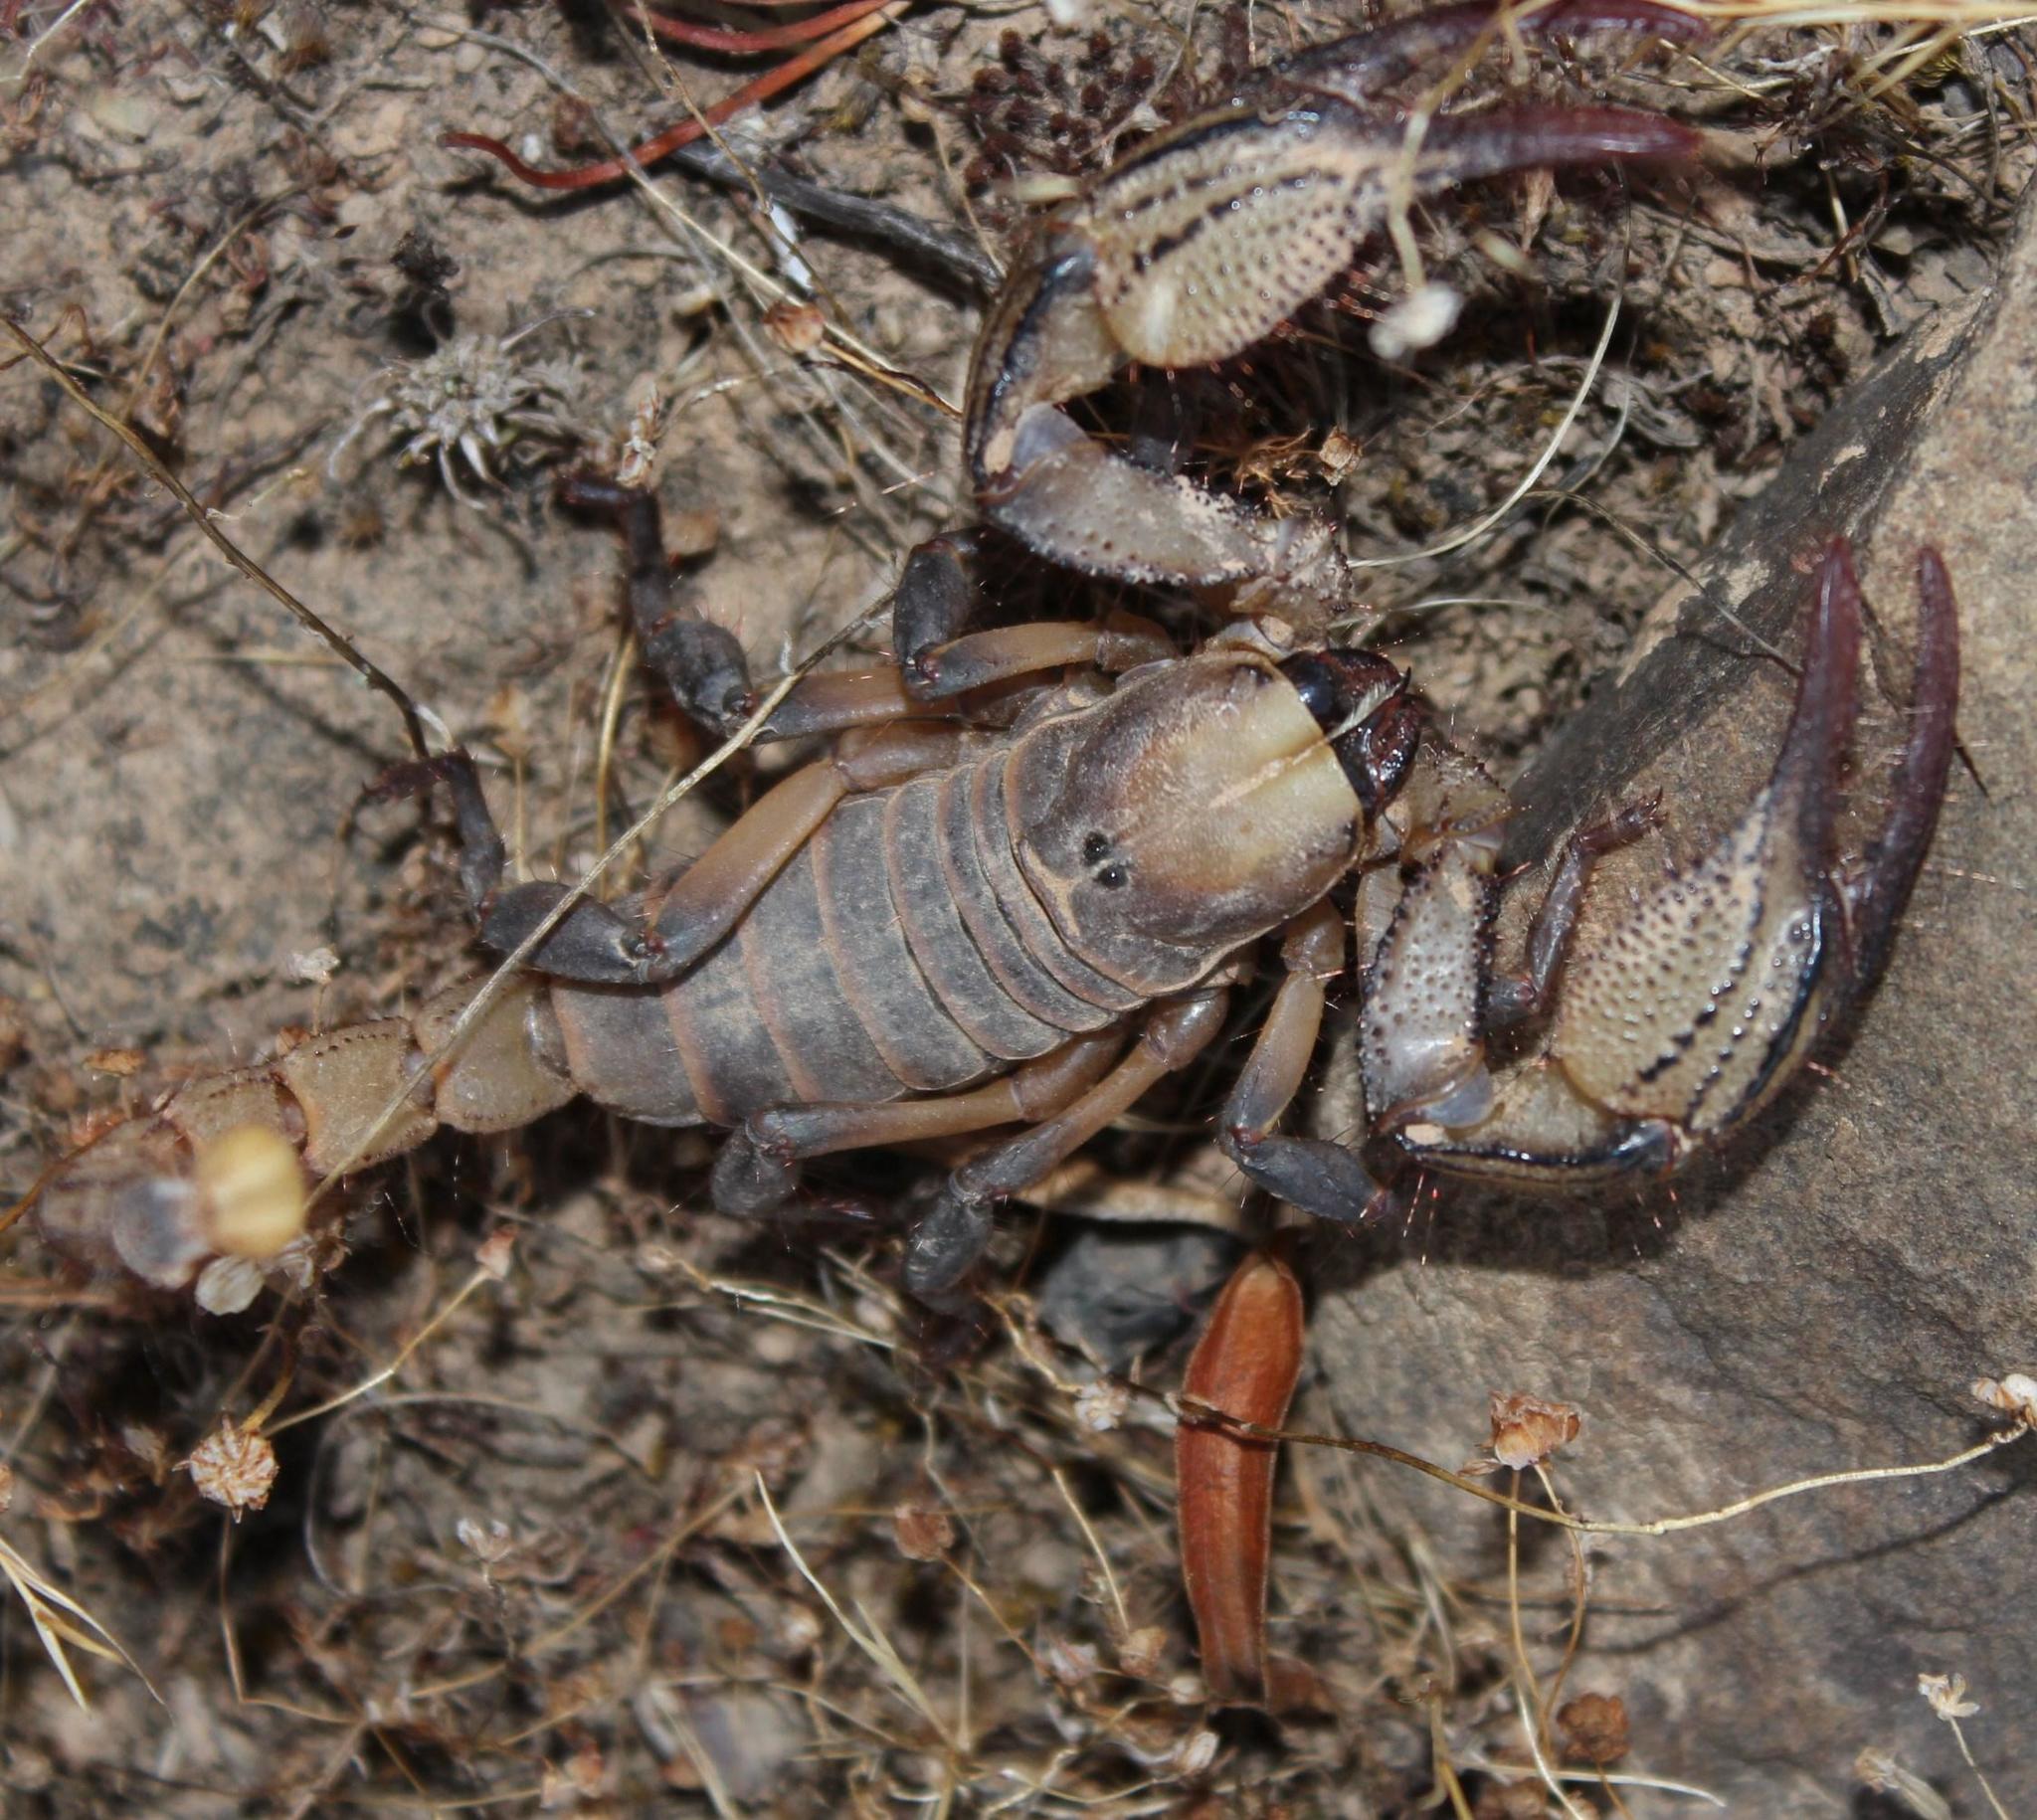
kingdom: Animalia
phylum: Arthropoda
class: Arachnida
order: Scorpiones
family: Scorpionidae
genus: Opistophthalmus
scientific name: Opistophthalmus macer
